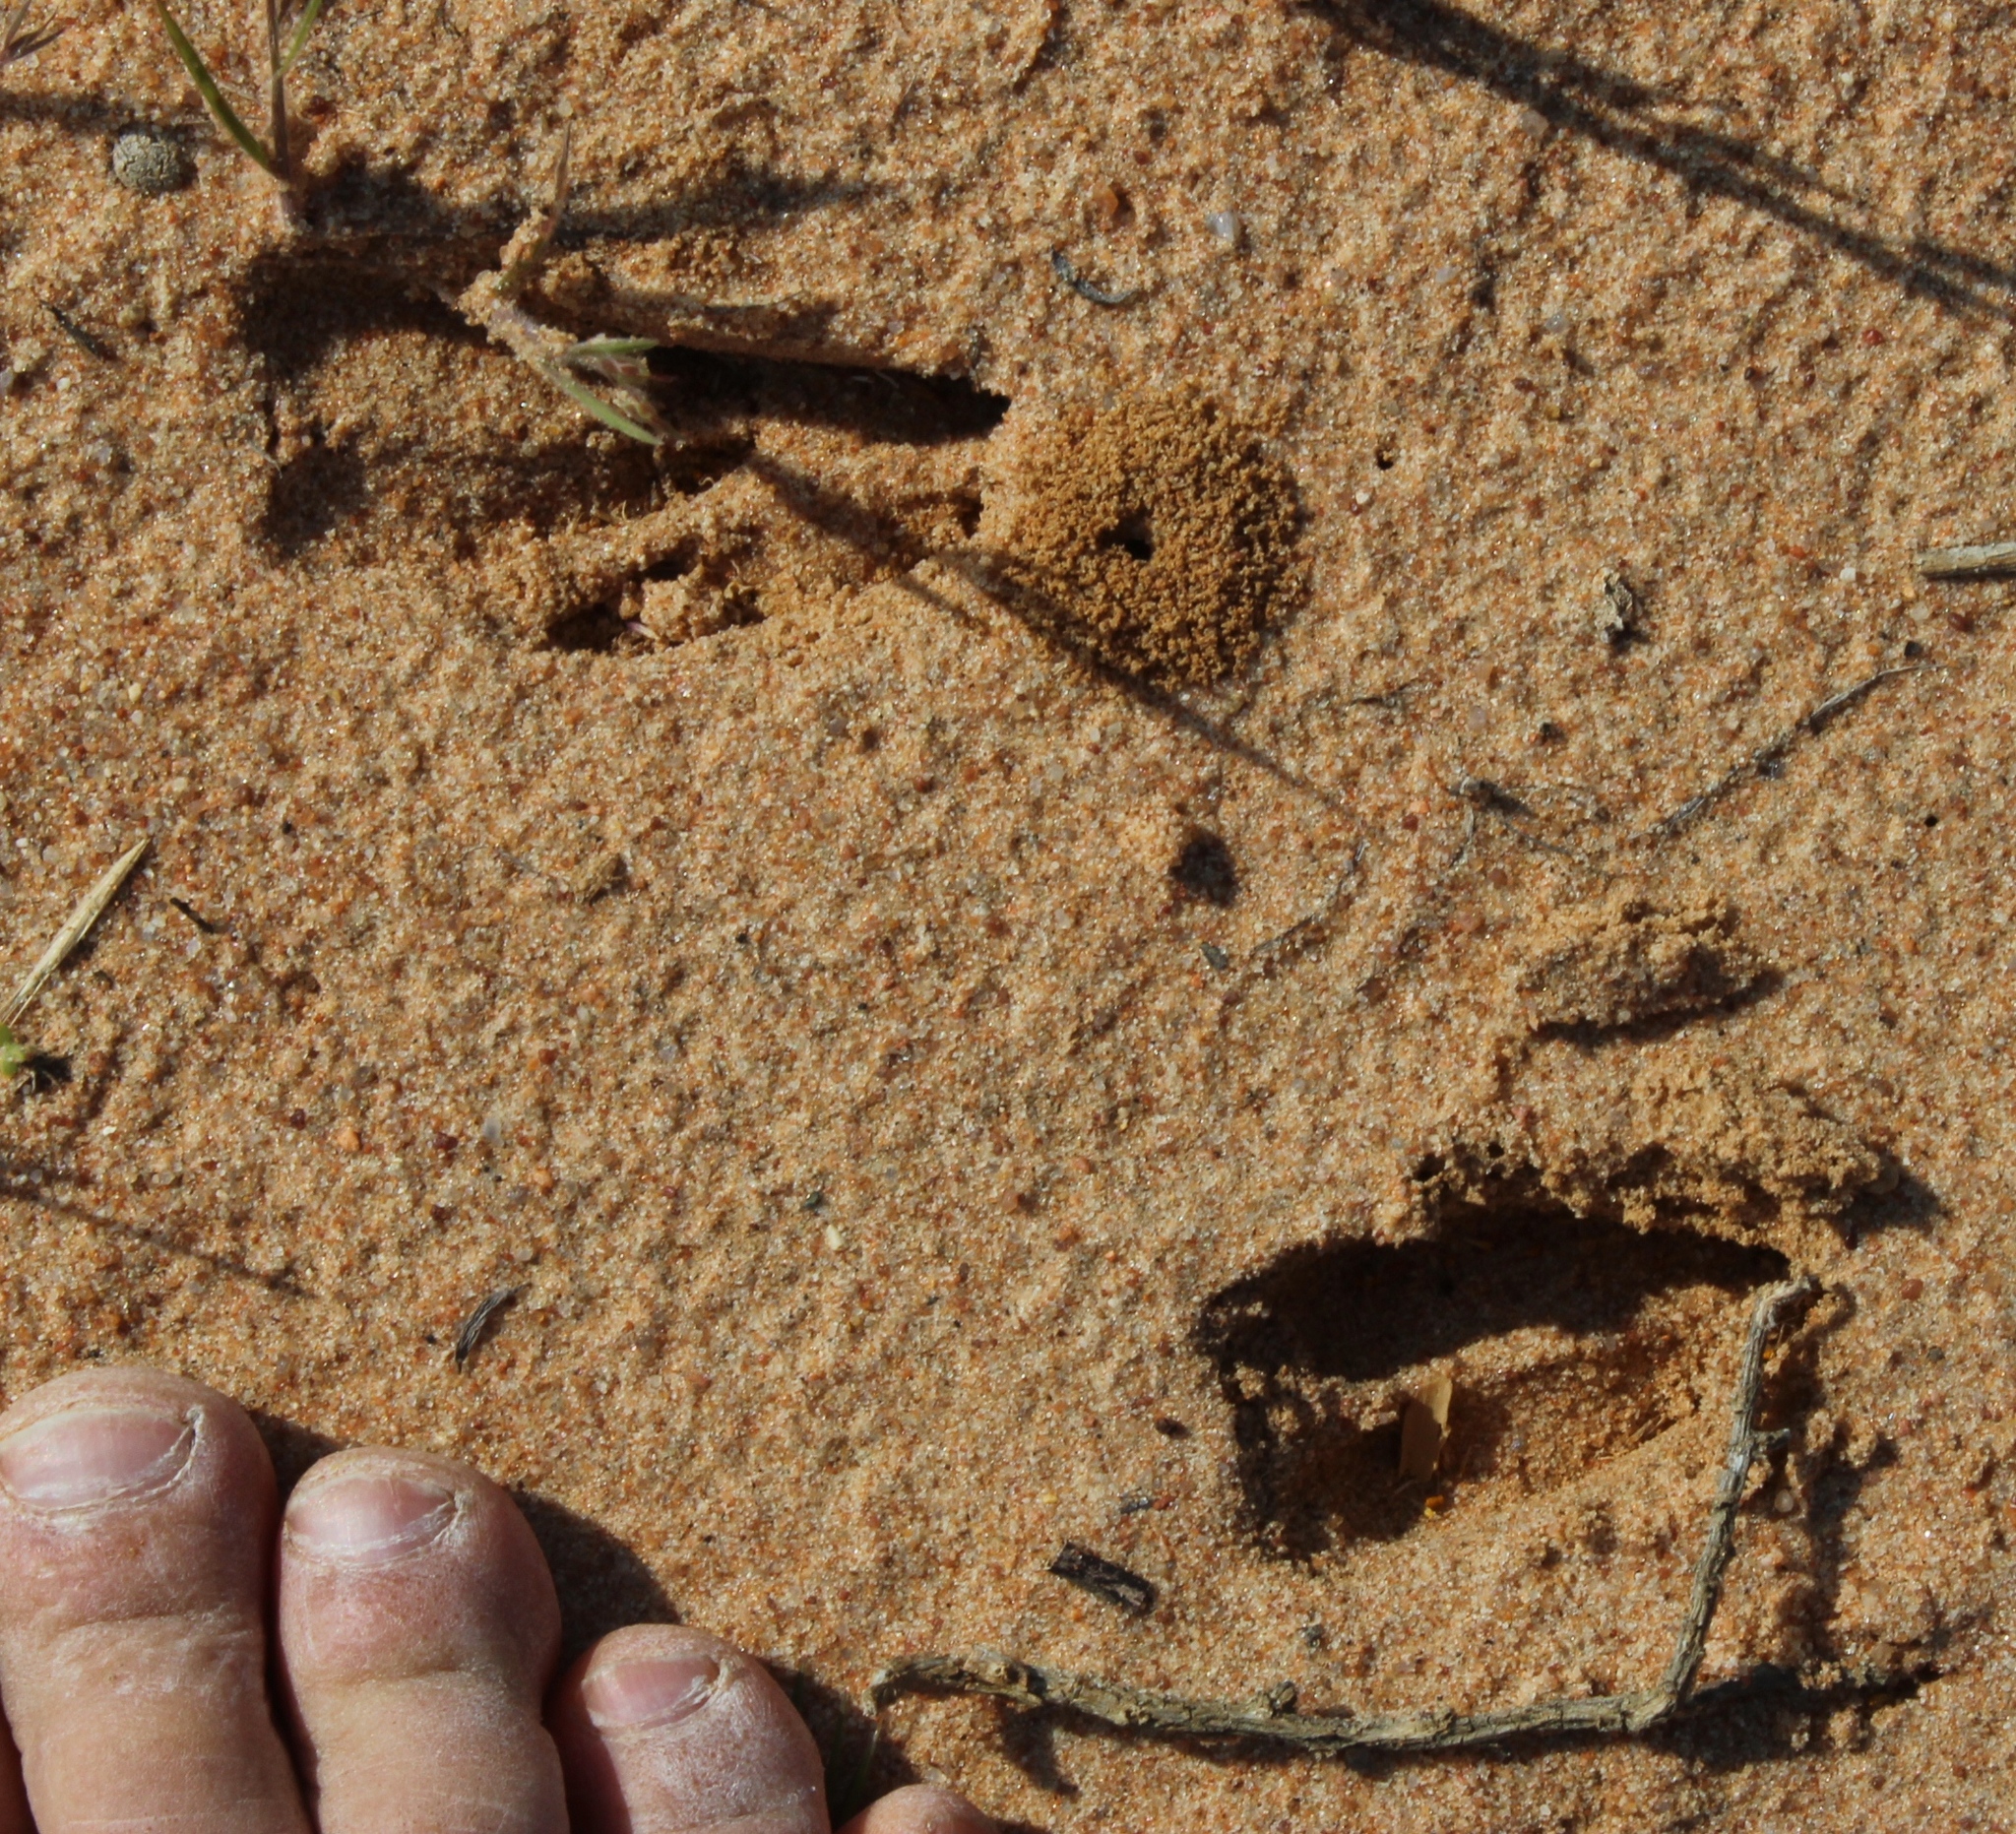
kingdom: Animalia
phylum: Chordata
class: Mammalia
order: Artiodactyla
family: Bovidae
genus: Sylvicapra
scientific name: Sylvicapra grimmia
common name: Bush duiker
